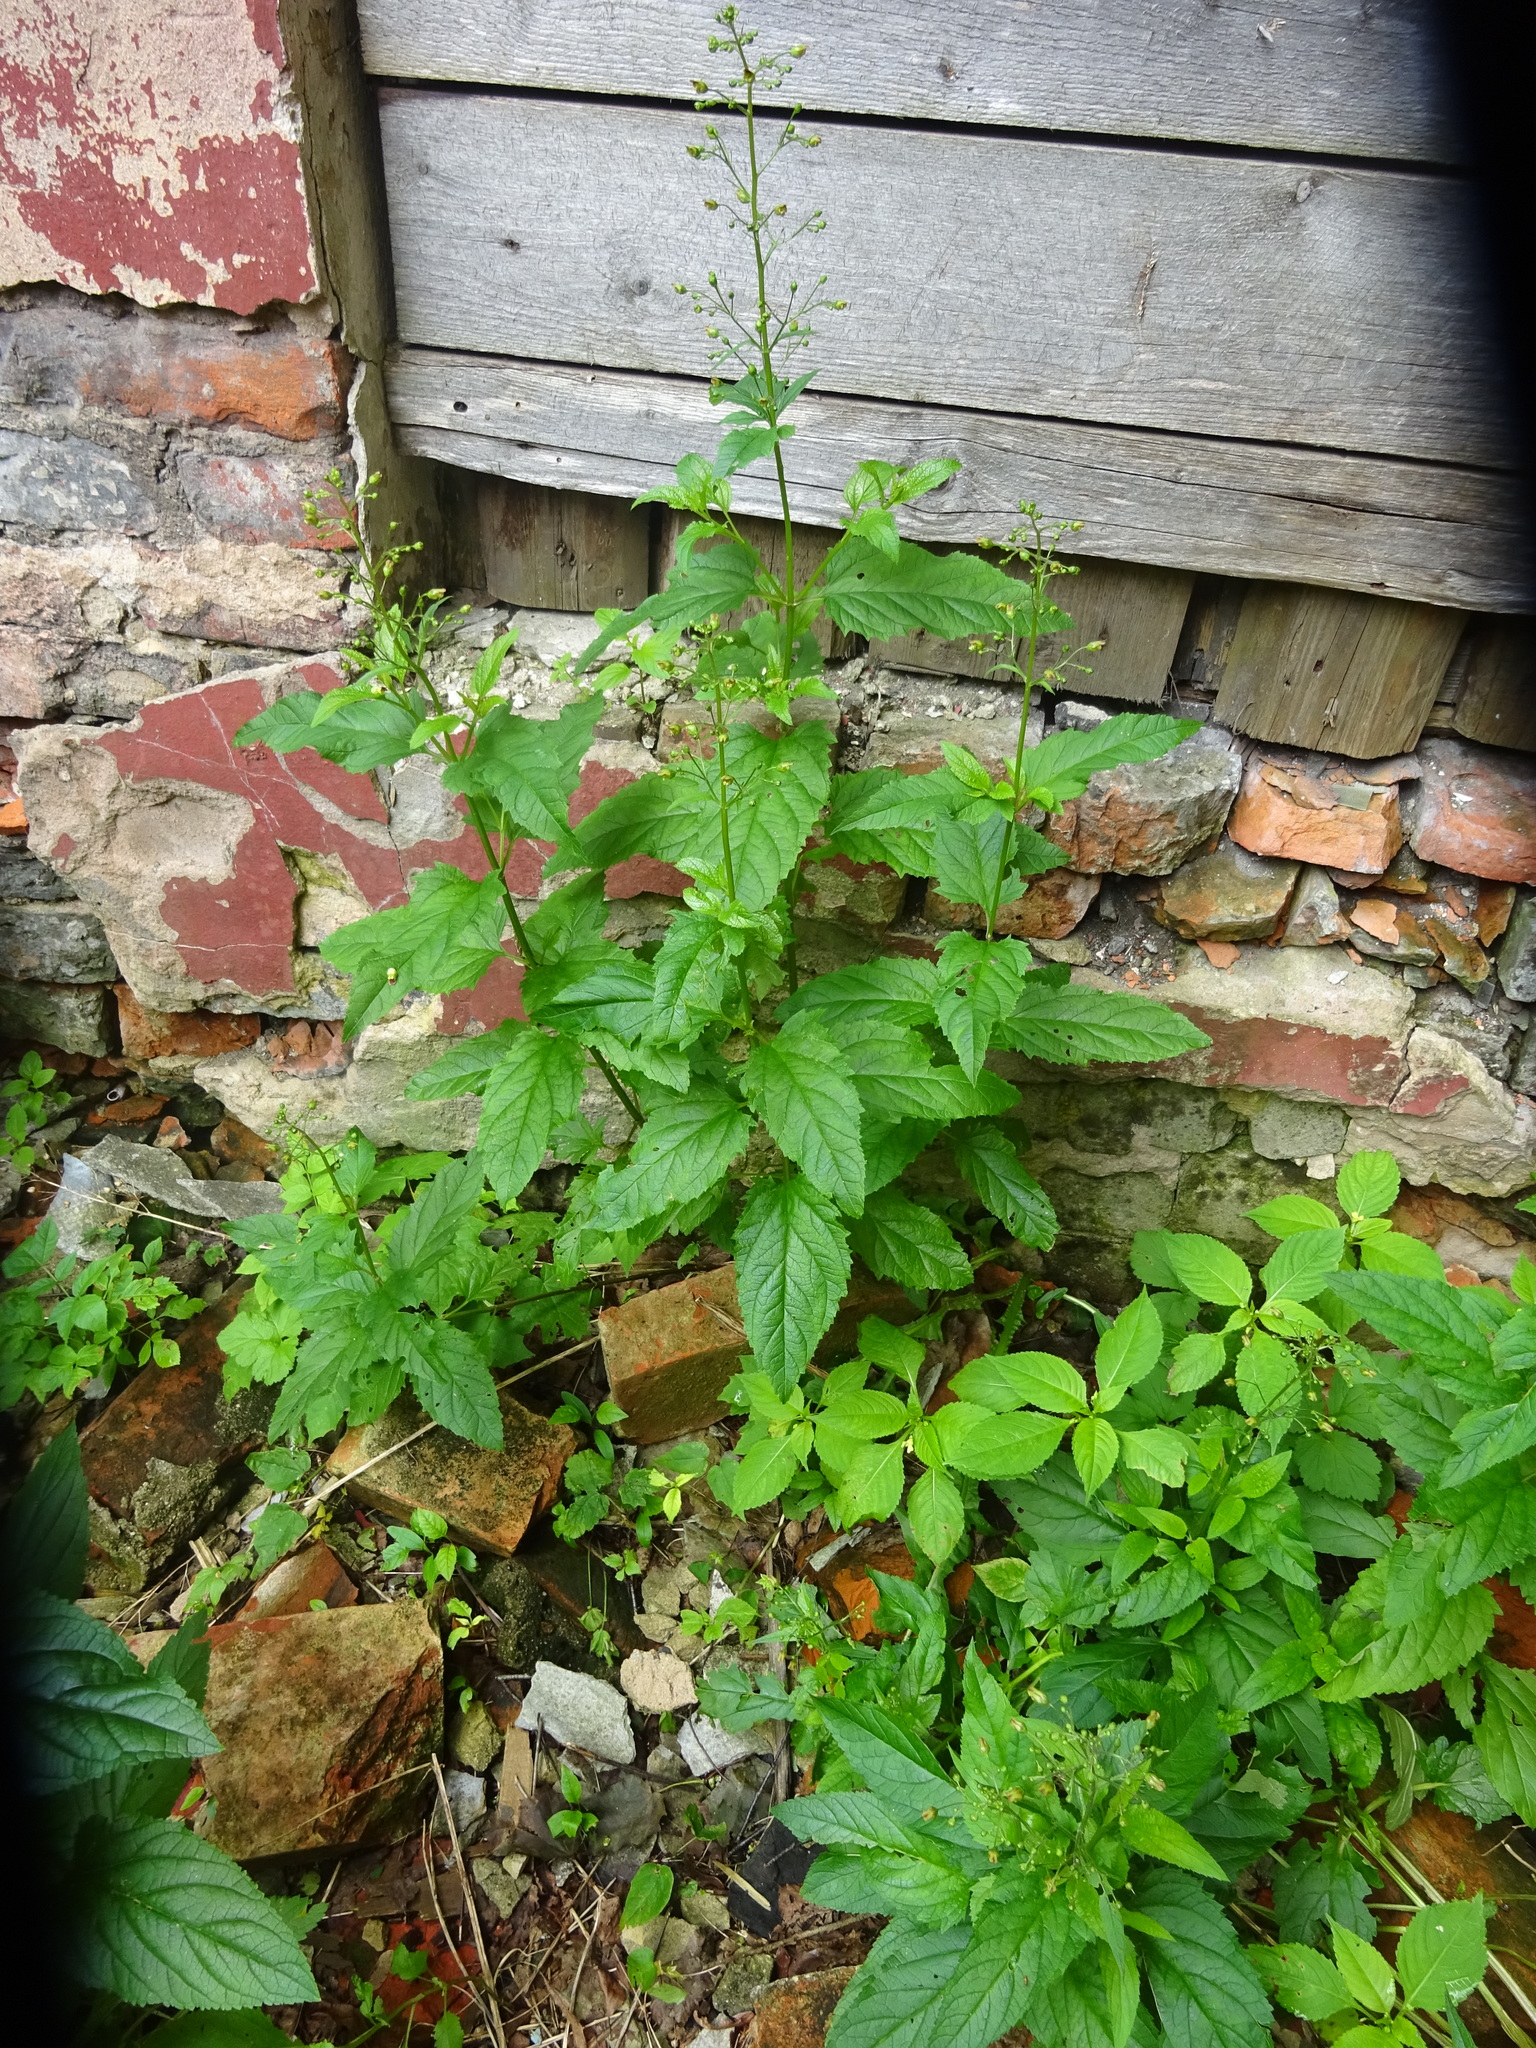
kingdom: Plantae
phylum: Tracheophyta
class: Magnoliopsida
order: Lamiales
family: Scrophulariaceae
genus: Scrophularia
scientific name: Scrophularia nodosa
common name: Common figwort
